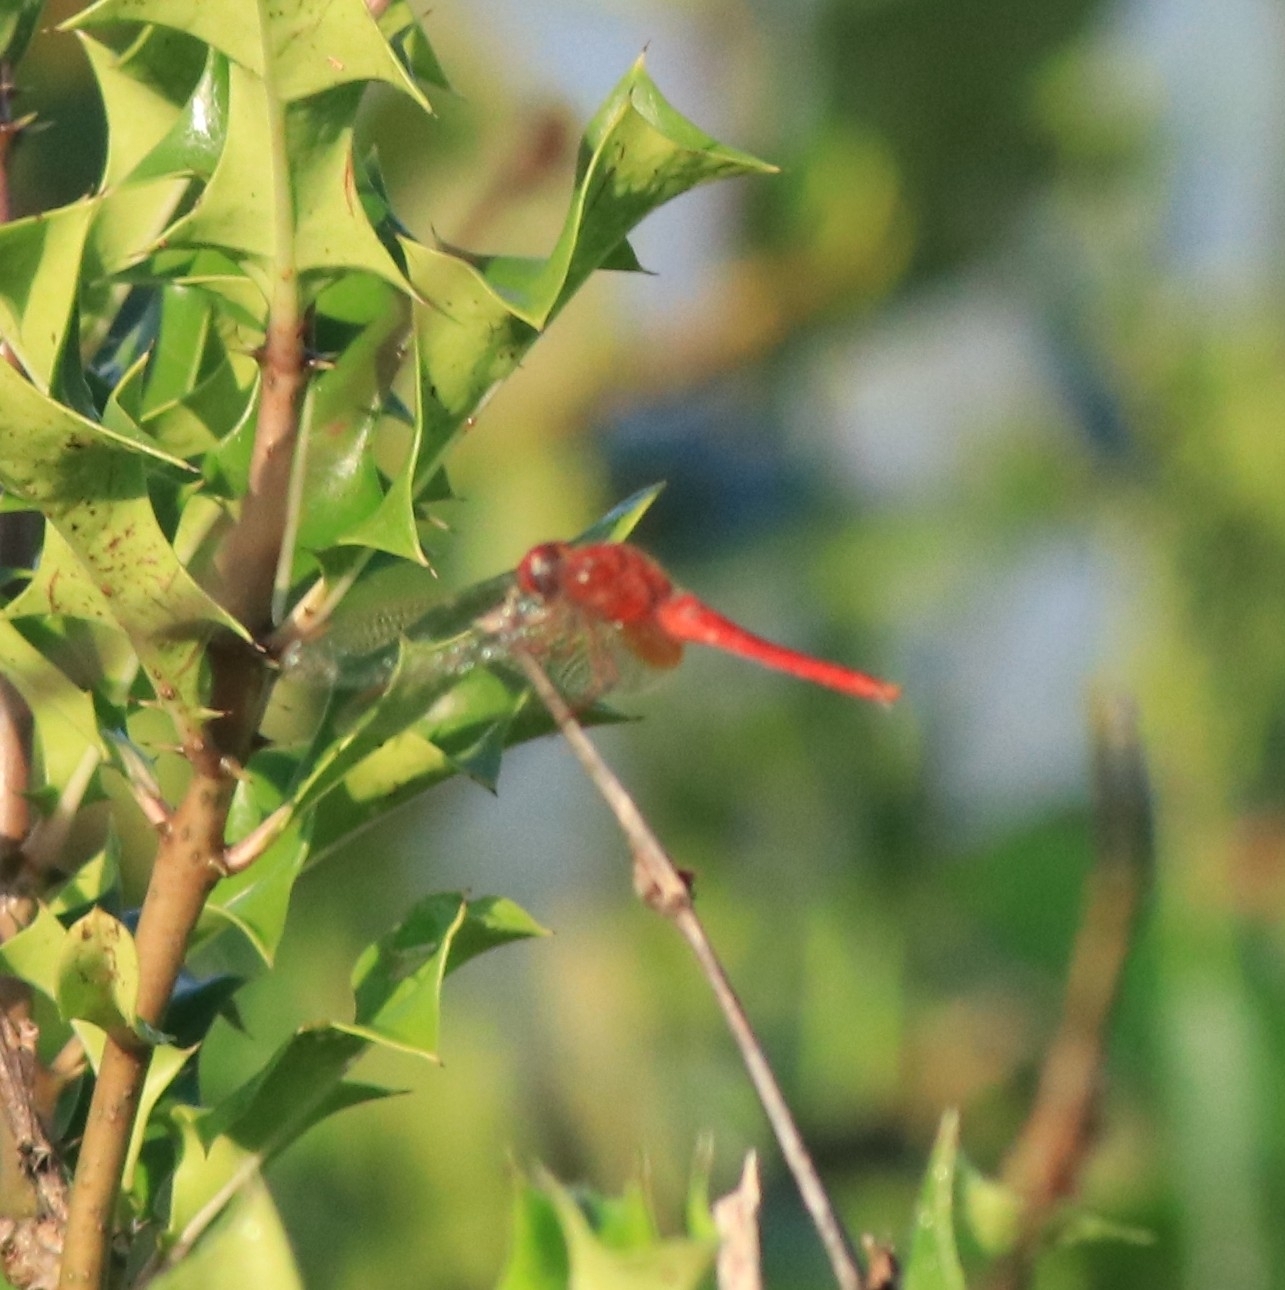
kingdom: Animalia
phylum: Arthropoda
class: Insecta
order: Odonata
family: Libellulidae
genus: Crocothemis
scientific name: Crocothemis servilia
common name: Scarlet skimmer
